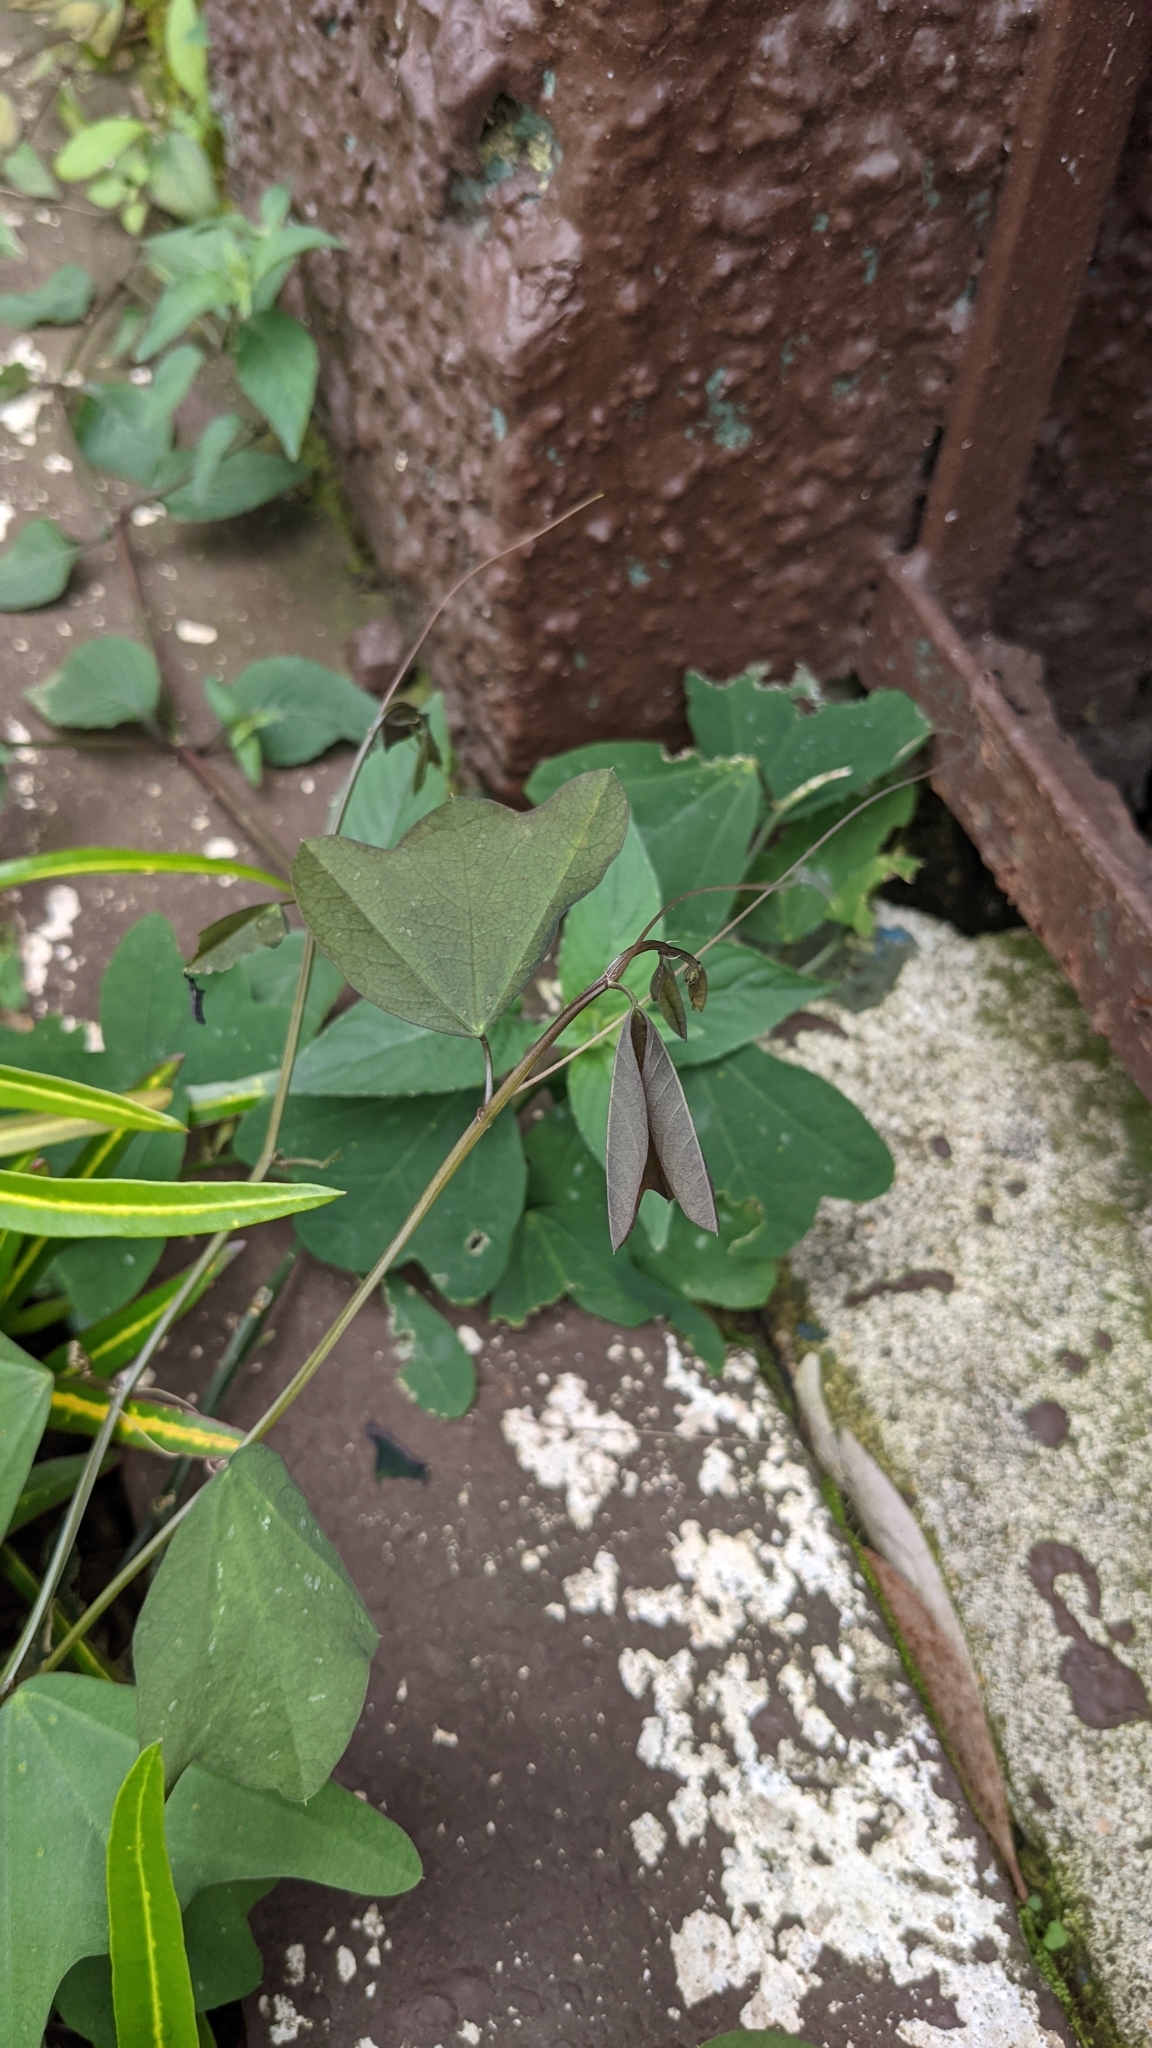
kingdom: Plantae
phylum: Tracheophyta
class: Magnoliopsida
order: Malpighiales
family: Passifloraceae
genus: Passiflora
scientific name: Passiflora biflora
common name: Twoflower passionflower
